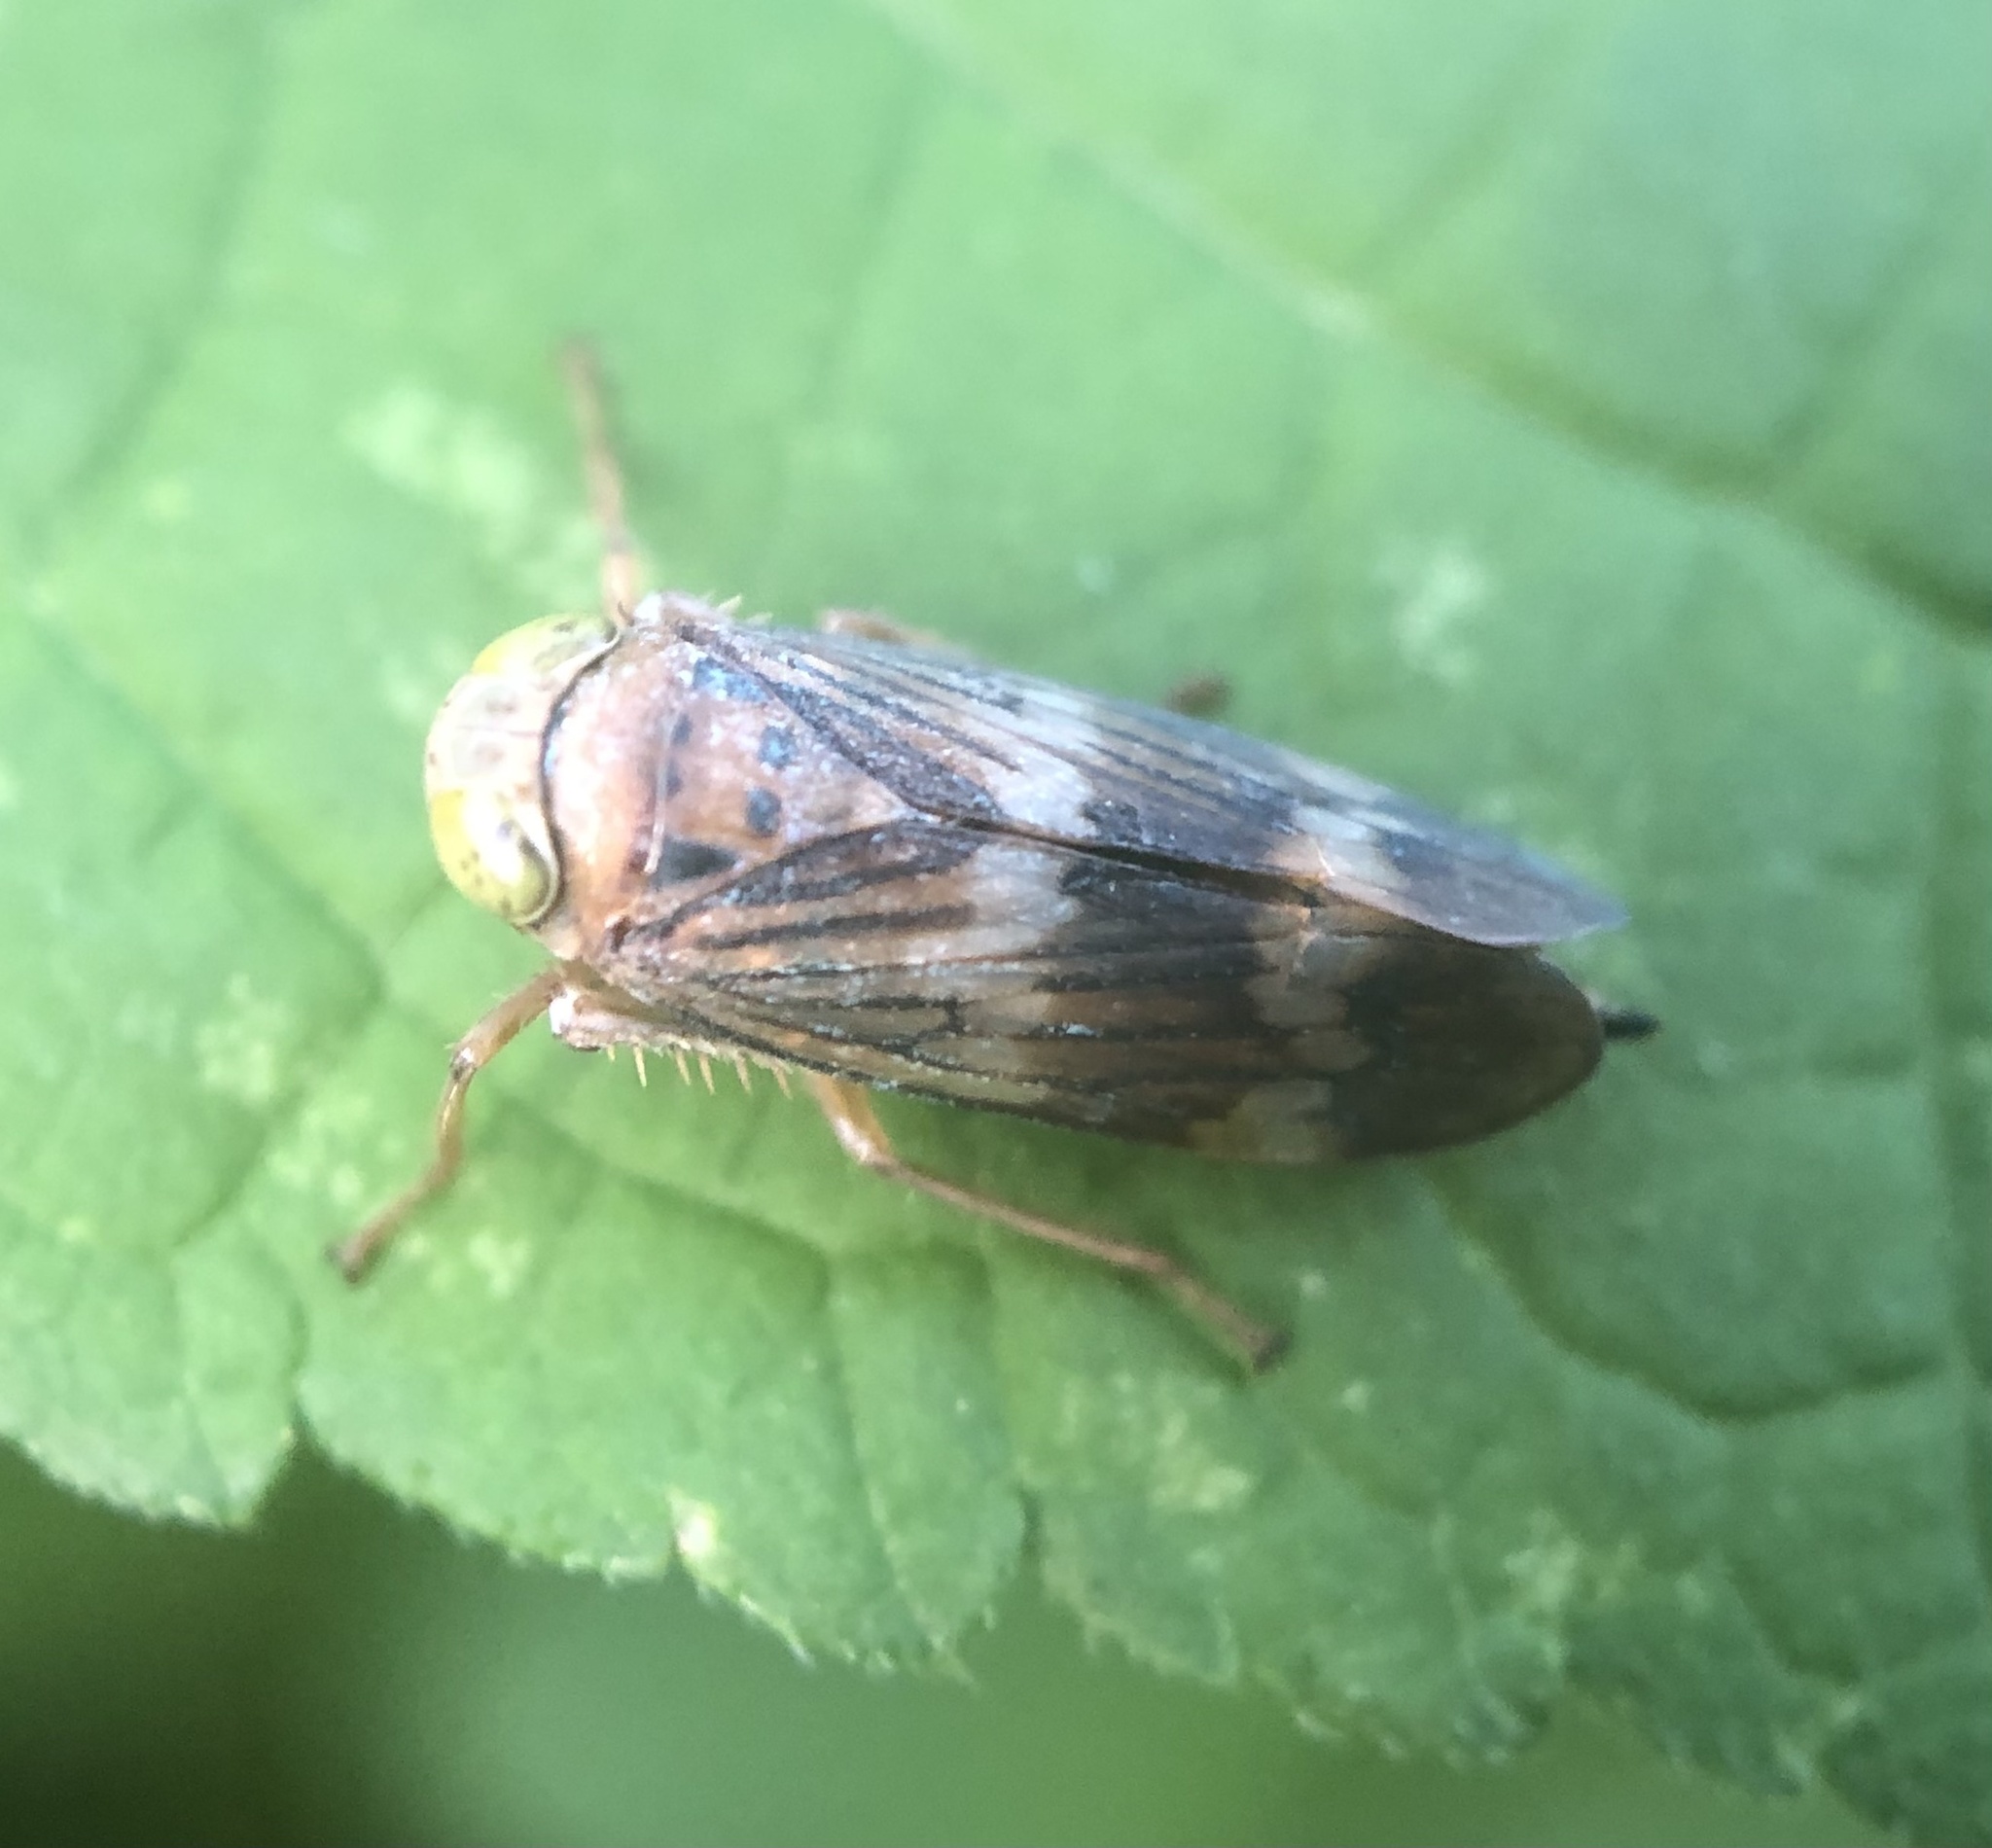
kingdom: Animalia
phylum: Arthropoda
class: Insecta
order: Hemiptera
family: Cicadellidae
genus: Jikradia
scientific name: Jikradia olitoria
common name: Coppery leafhopper
